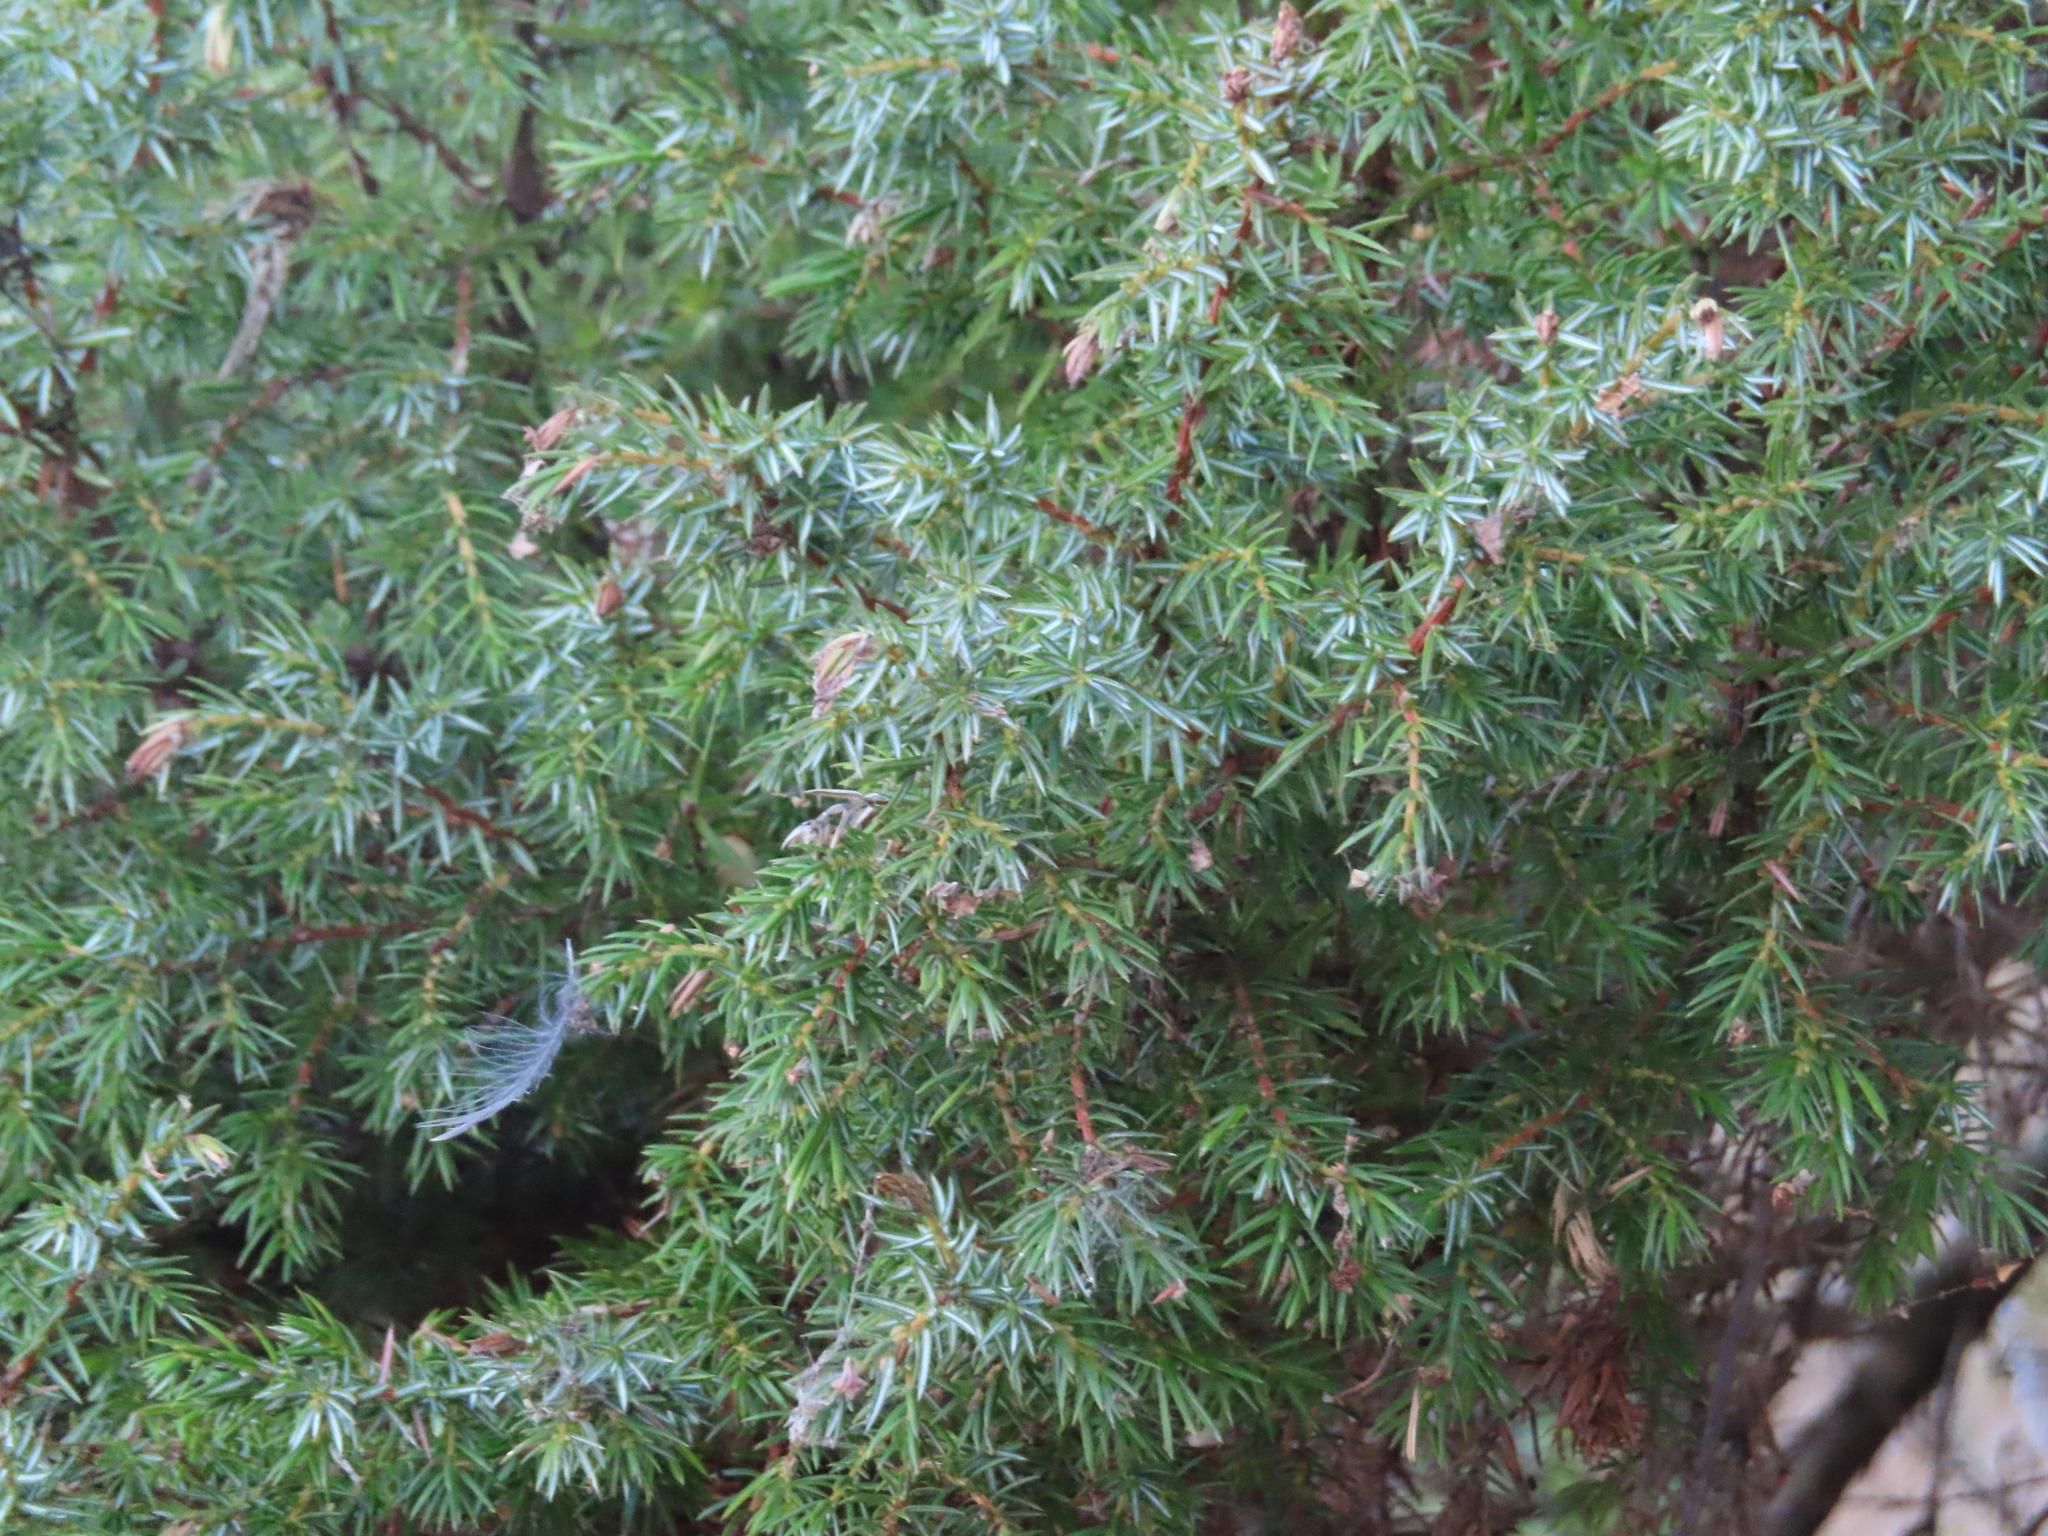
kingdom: Plantae
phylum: Tracheophyta
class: Pinopsida
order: Pinales
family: Cupressaceae
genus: Juniperus
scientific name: Juniperus communis
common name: Common juniper
